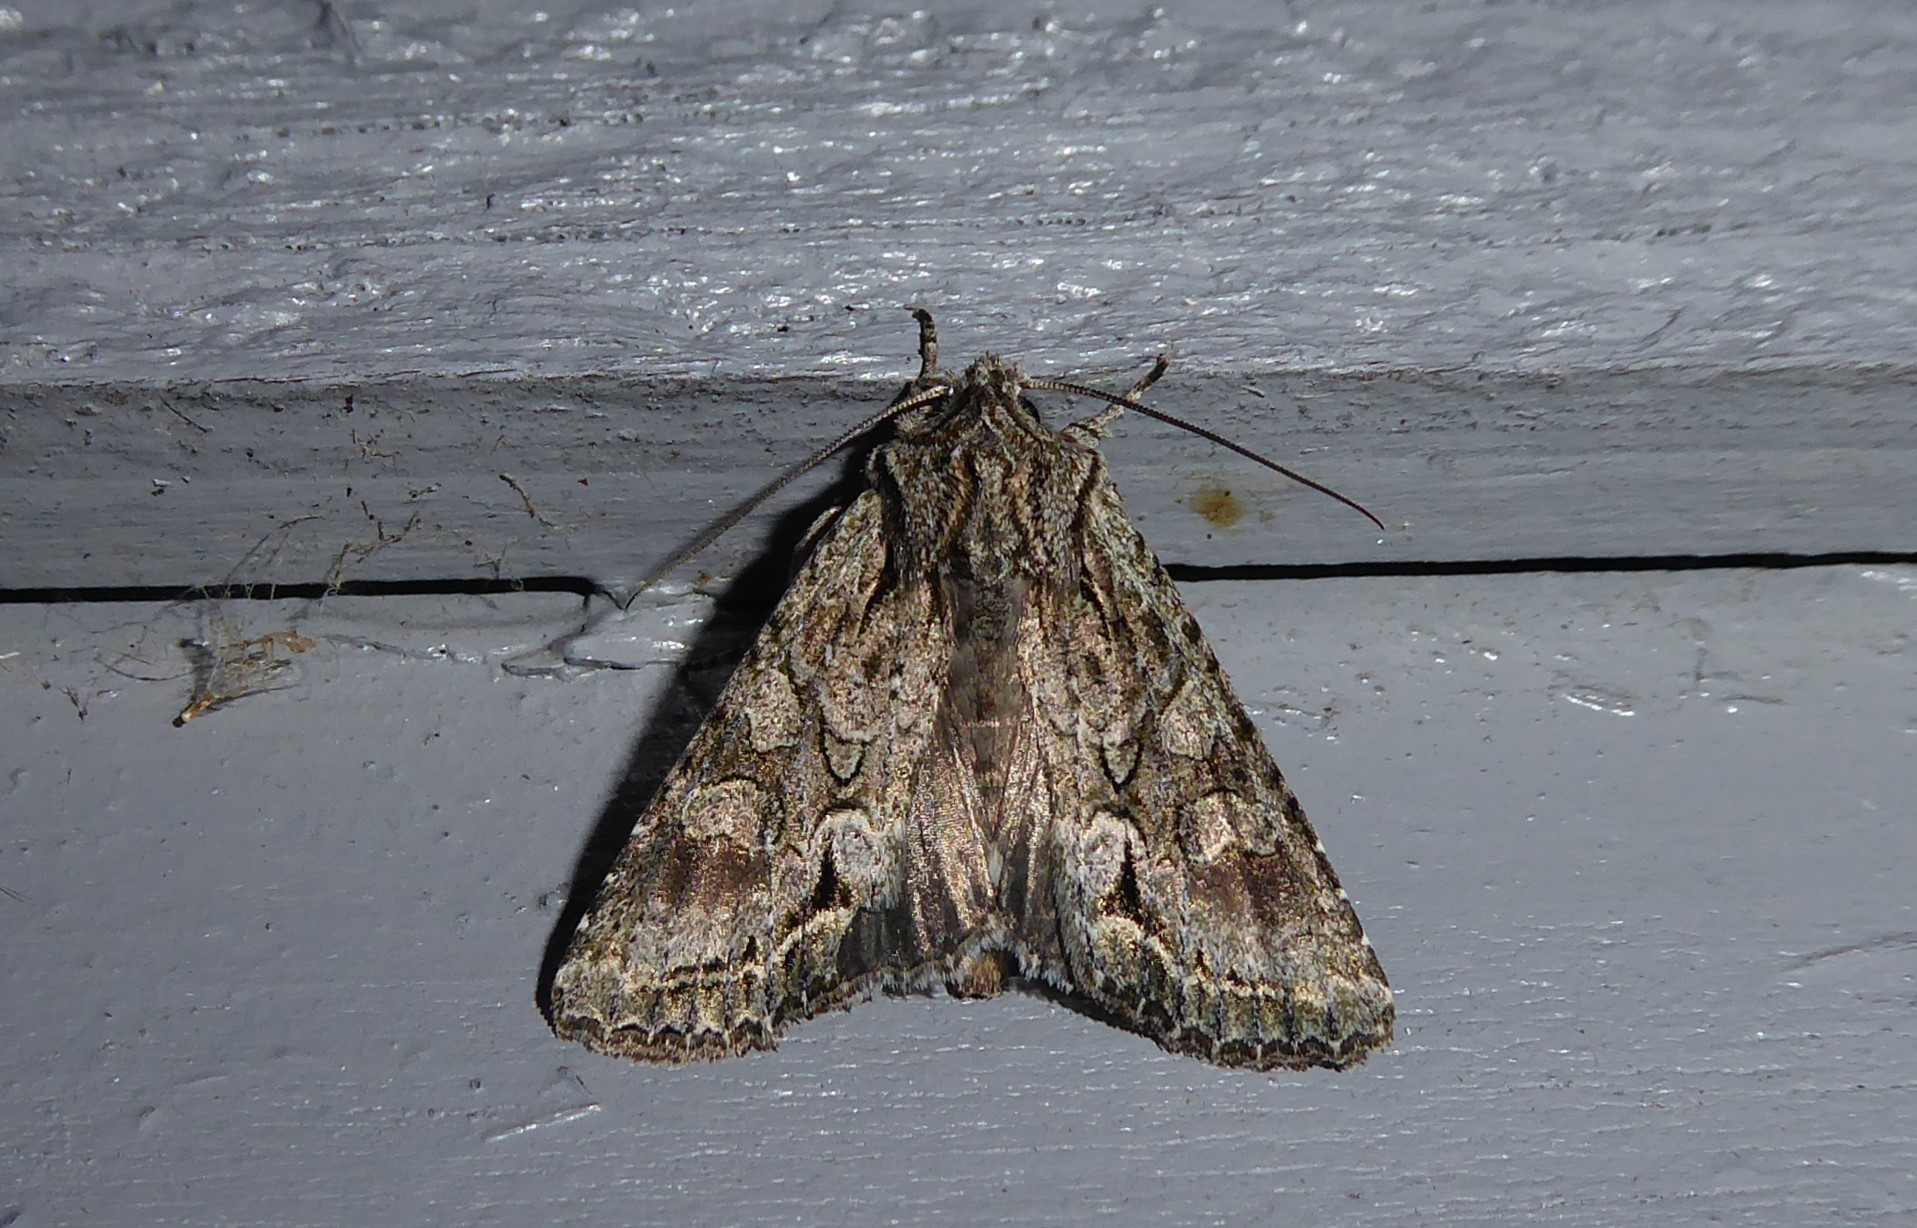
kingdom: Animalia
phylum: Arthropoda
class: Insecta
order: Lepidoptera
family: Noctuidae
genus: Ichneutica
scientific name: Ichneutica mutans
